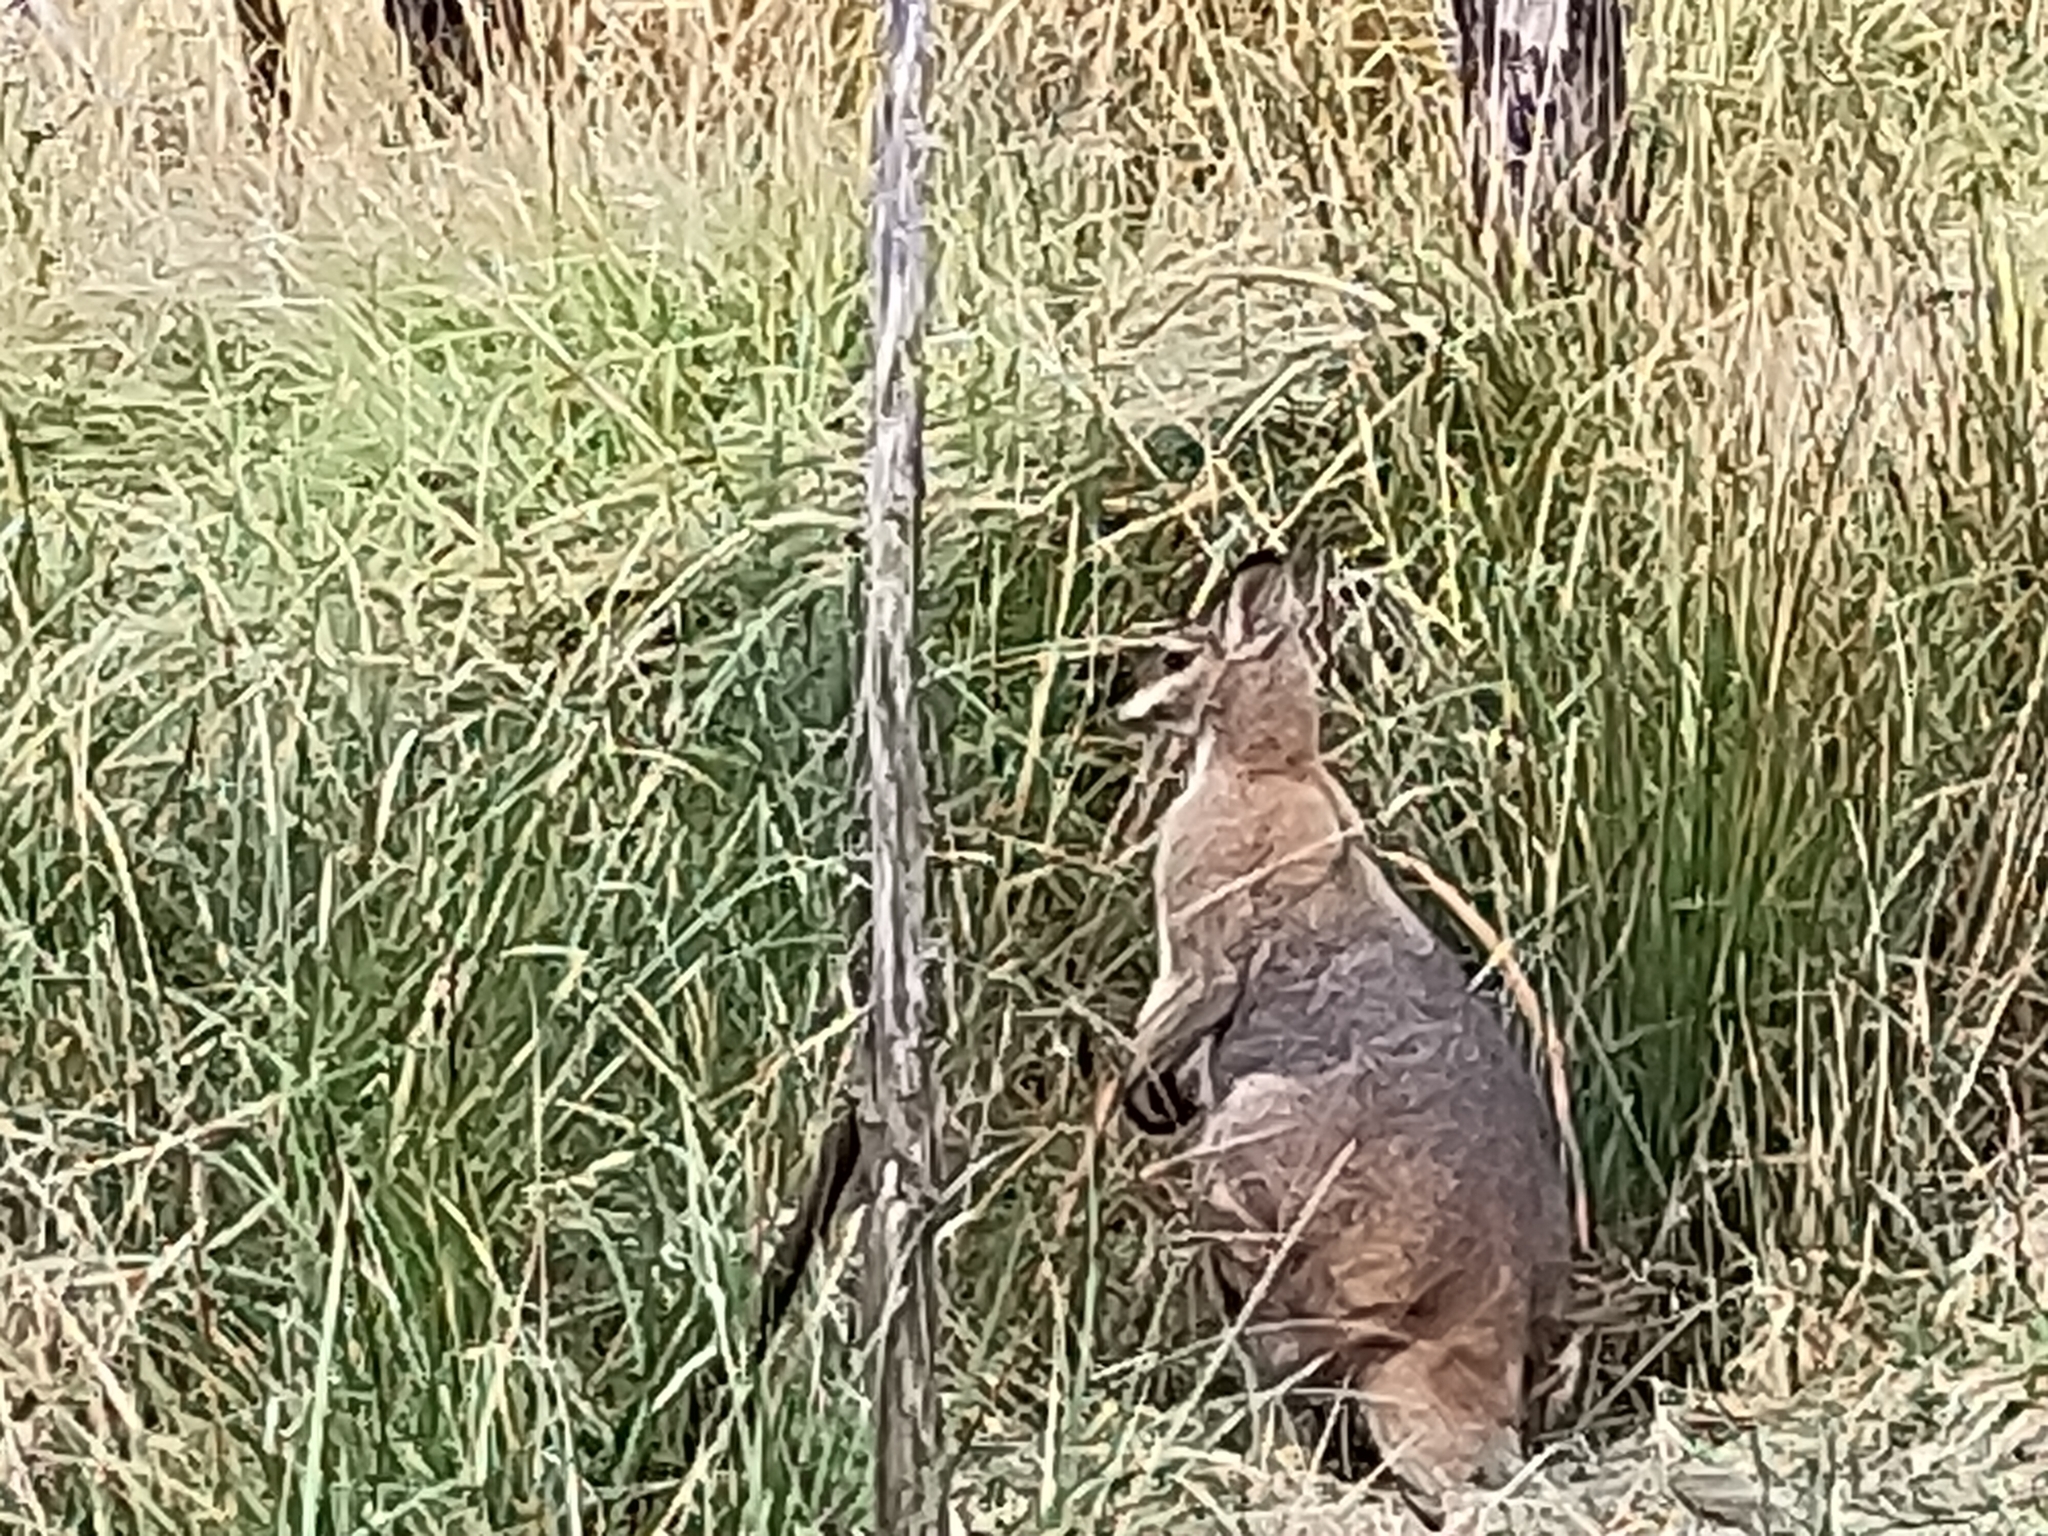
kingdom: Animalia
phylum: Chordata
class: Mammalia
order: Diprotodontia
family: Macropodidae
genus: Notamacropus
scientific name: Notamacropus rufogriseus
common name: Red-necked wallaby
